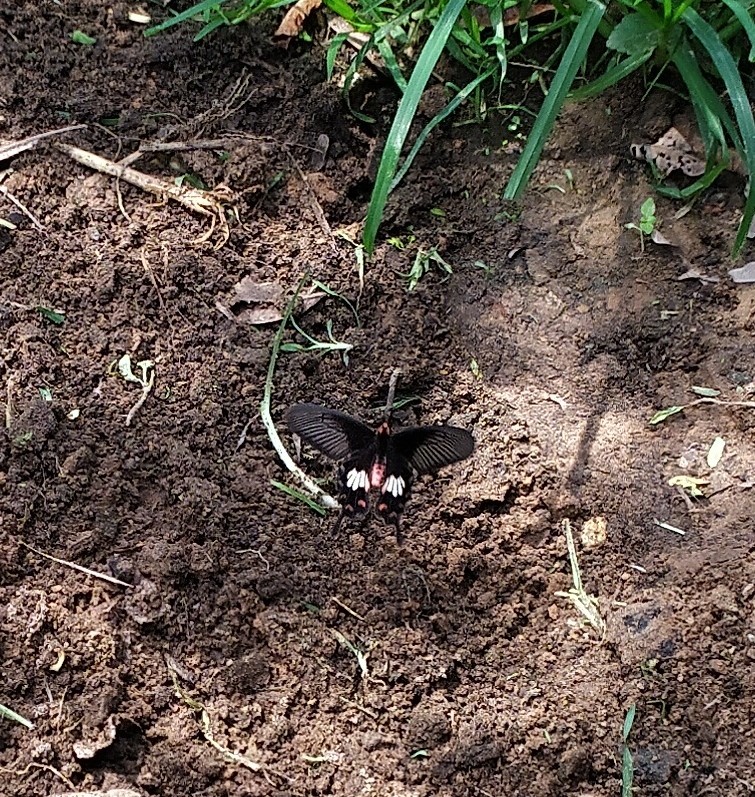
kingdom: Animalia
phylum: Arthropoda
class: Insecta
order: Lepidoptera
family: Papilionidae
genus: Pachliopta
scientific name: Pachliopta aristolochiae
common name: Common rose
